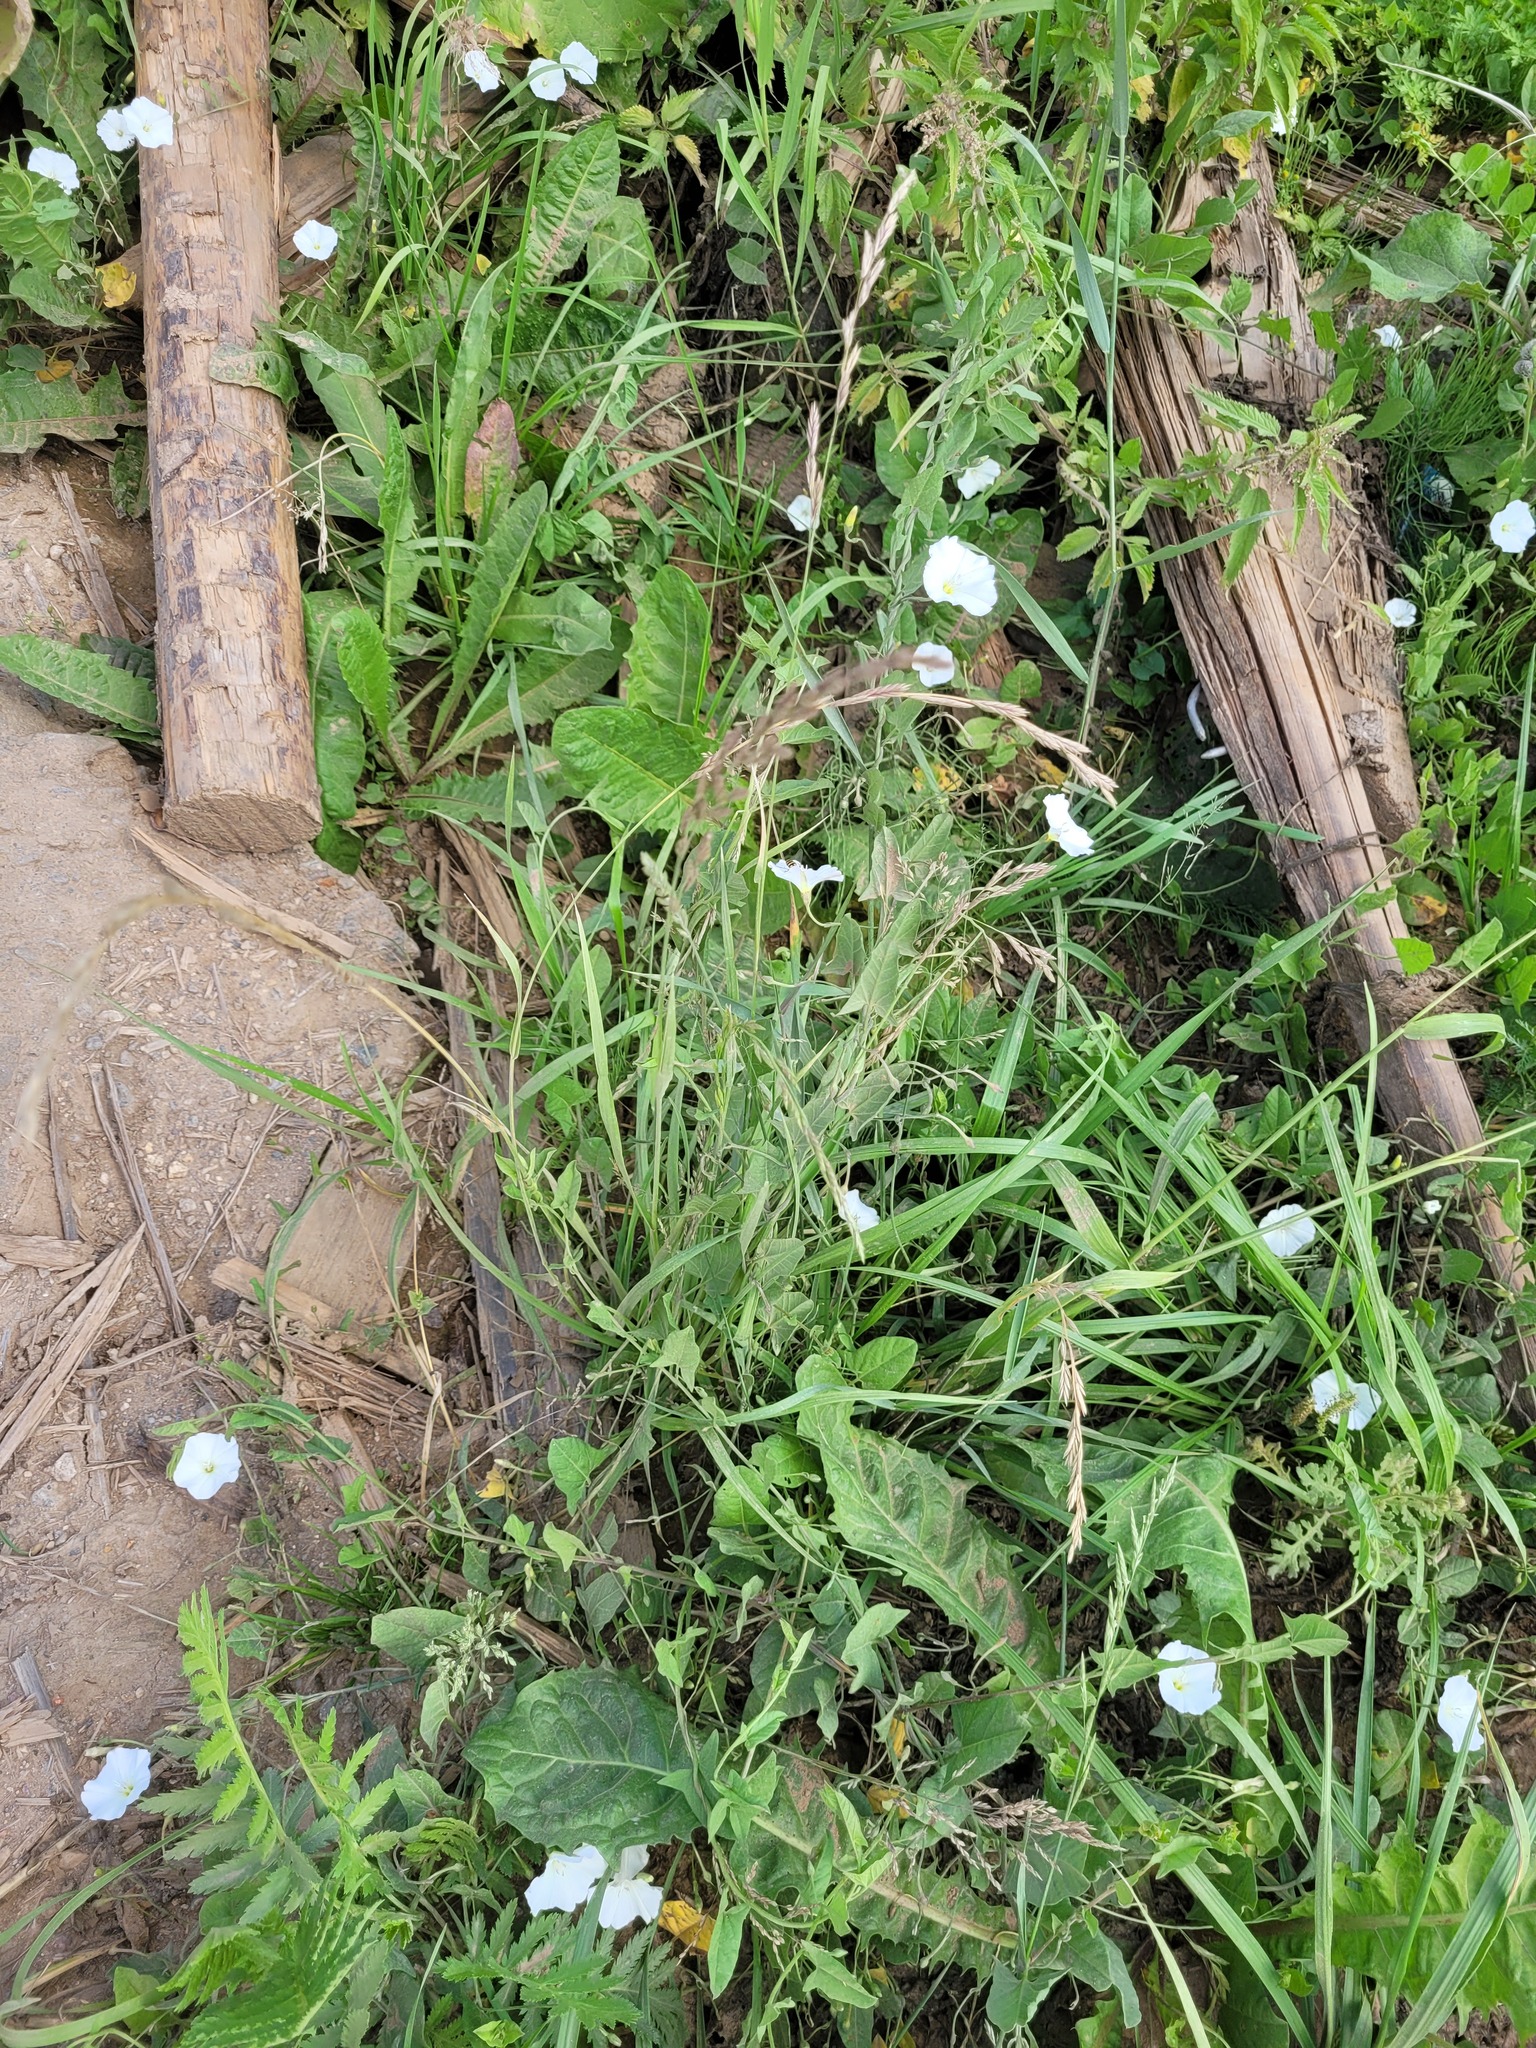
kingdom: Plantae
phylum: Tracheophyta
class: Liliopsida
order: Poales
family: Poaceae
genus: Lolium
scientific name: Lolium perenne
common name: Perennial ryegrass
